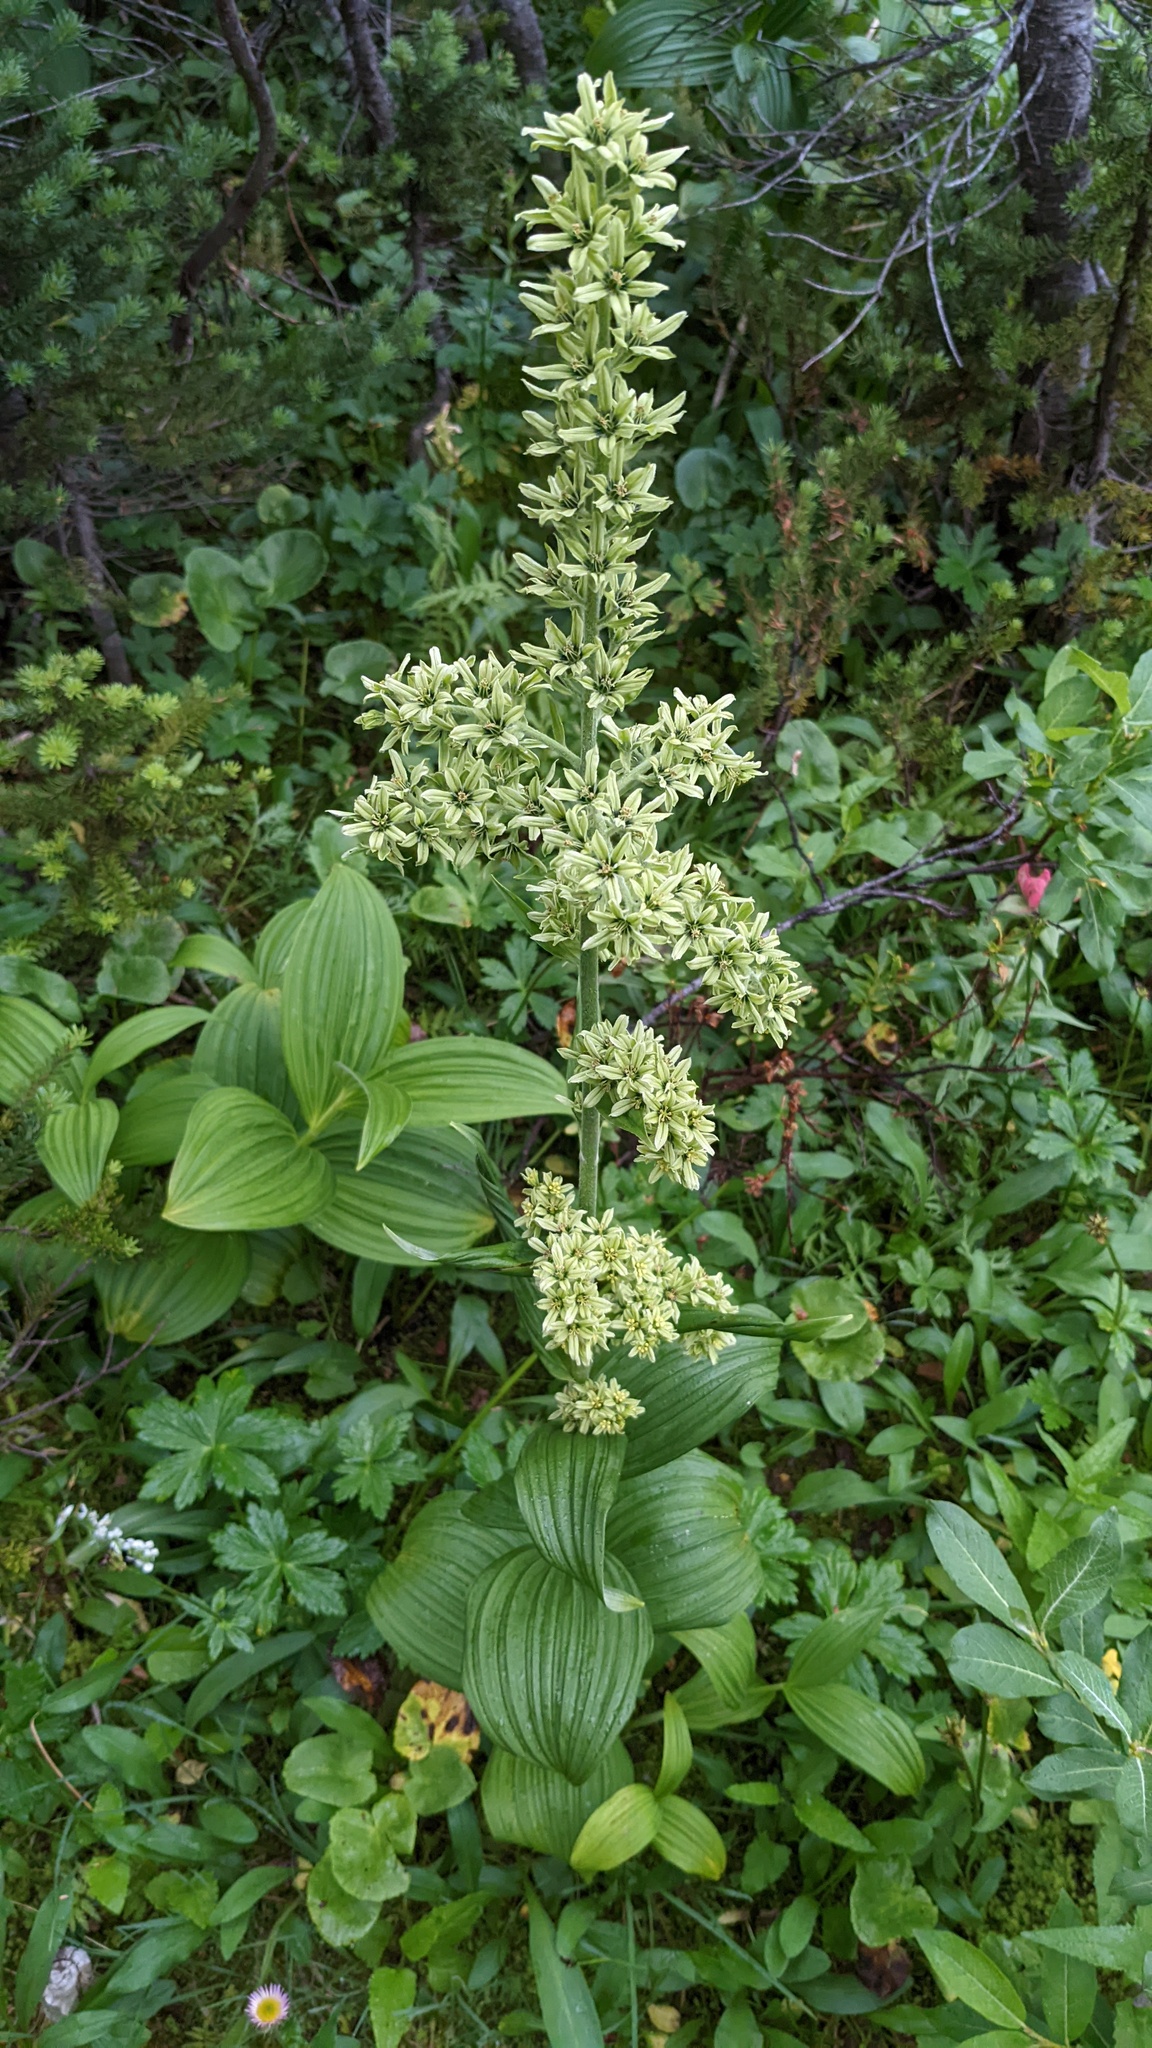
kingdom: Plantae
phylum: Tracheophyta
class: Liliopsida
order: Liliales
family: Melanthiaceae
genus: Veratrum
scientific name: Veratrum viride
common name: American false hellebore
